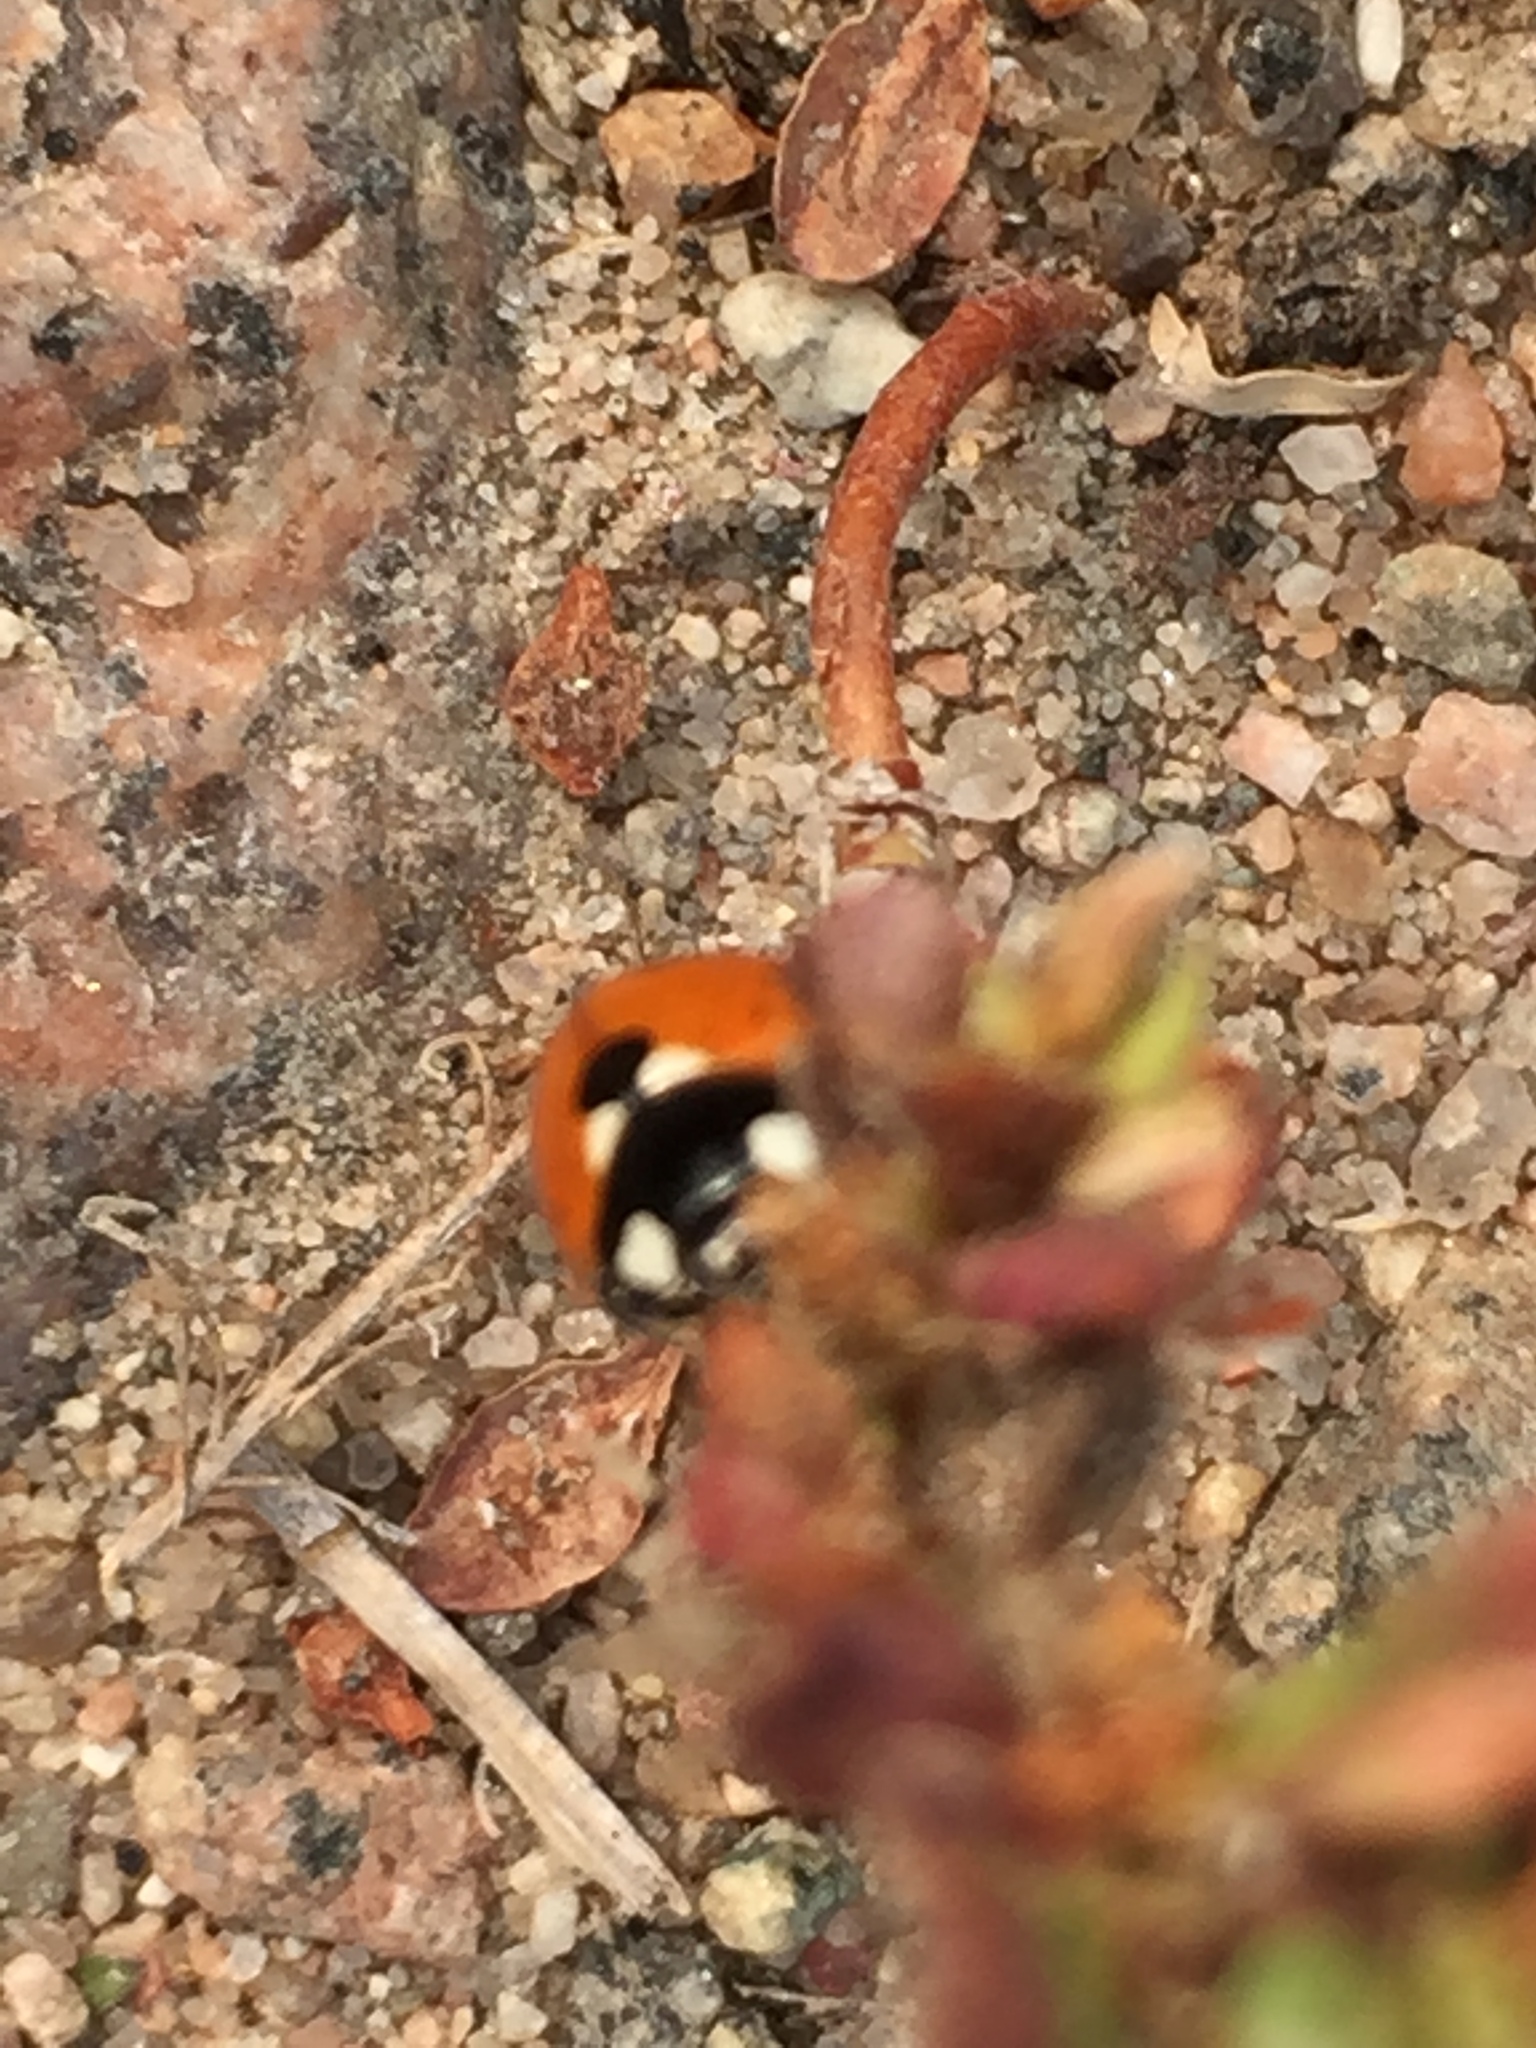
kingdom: Animalia
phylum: Arthropoda
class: Insecta
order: Coleoptera
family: Coccinellidae
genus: Coccinella
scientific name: Coccinella septempunctata
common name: Sevenspotted lady beetle
